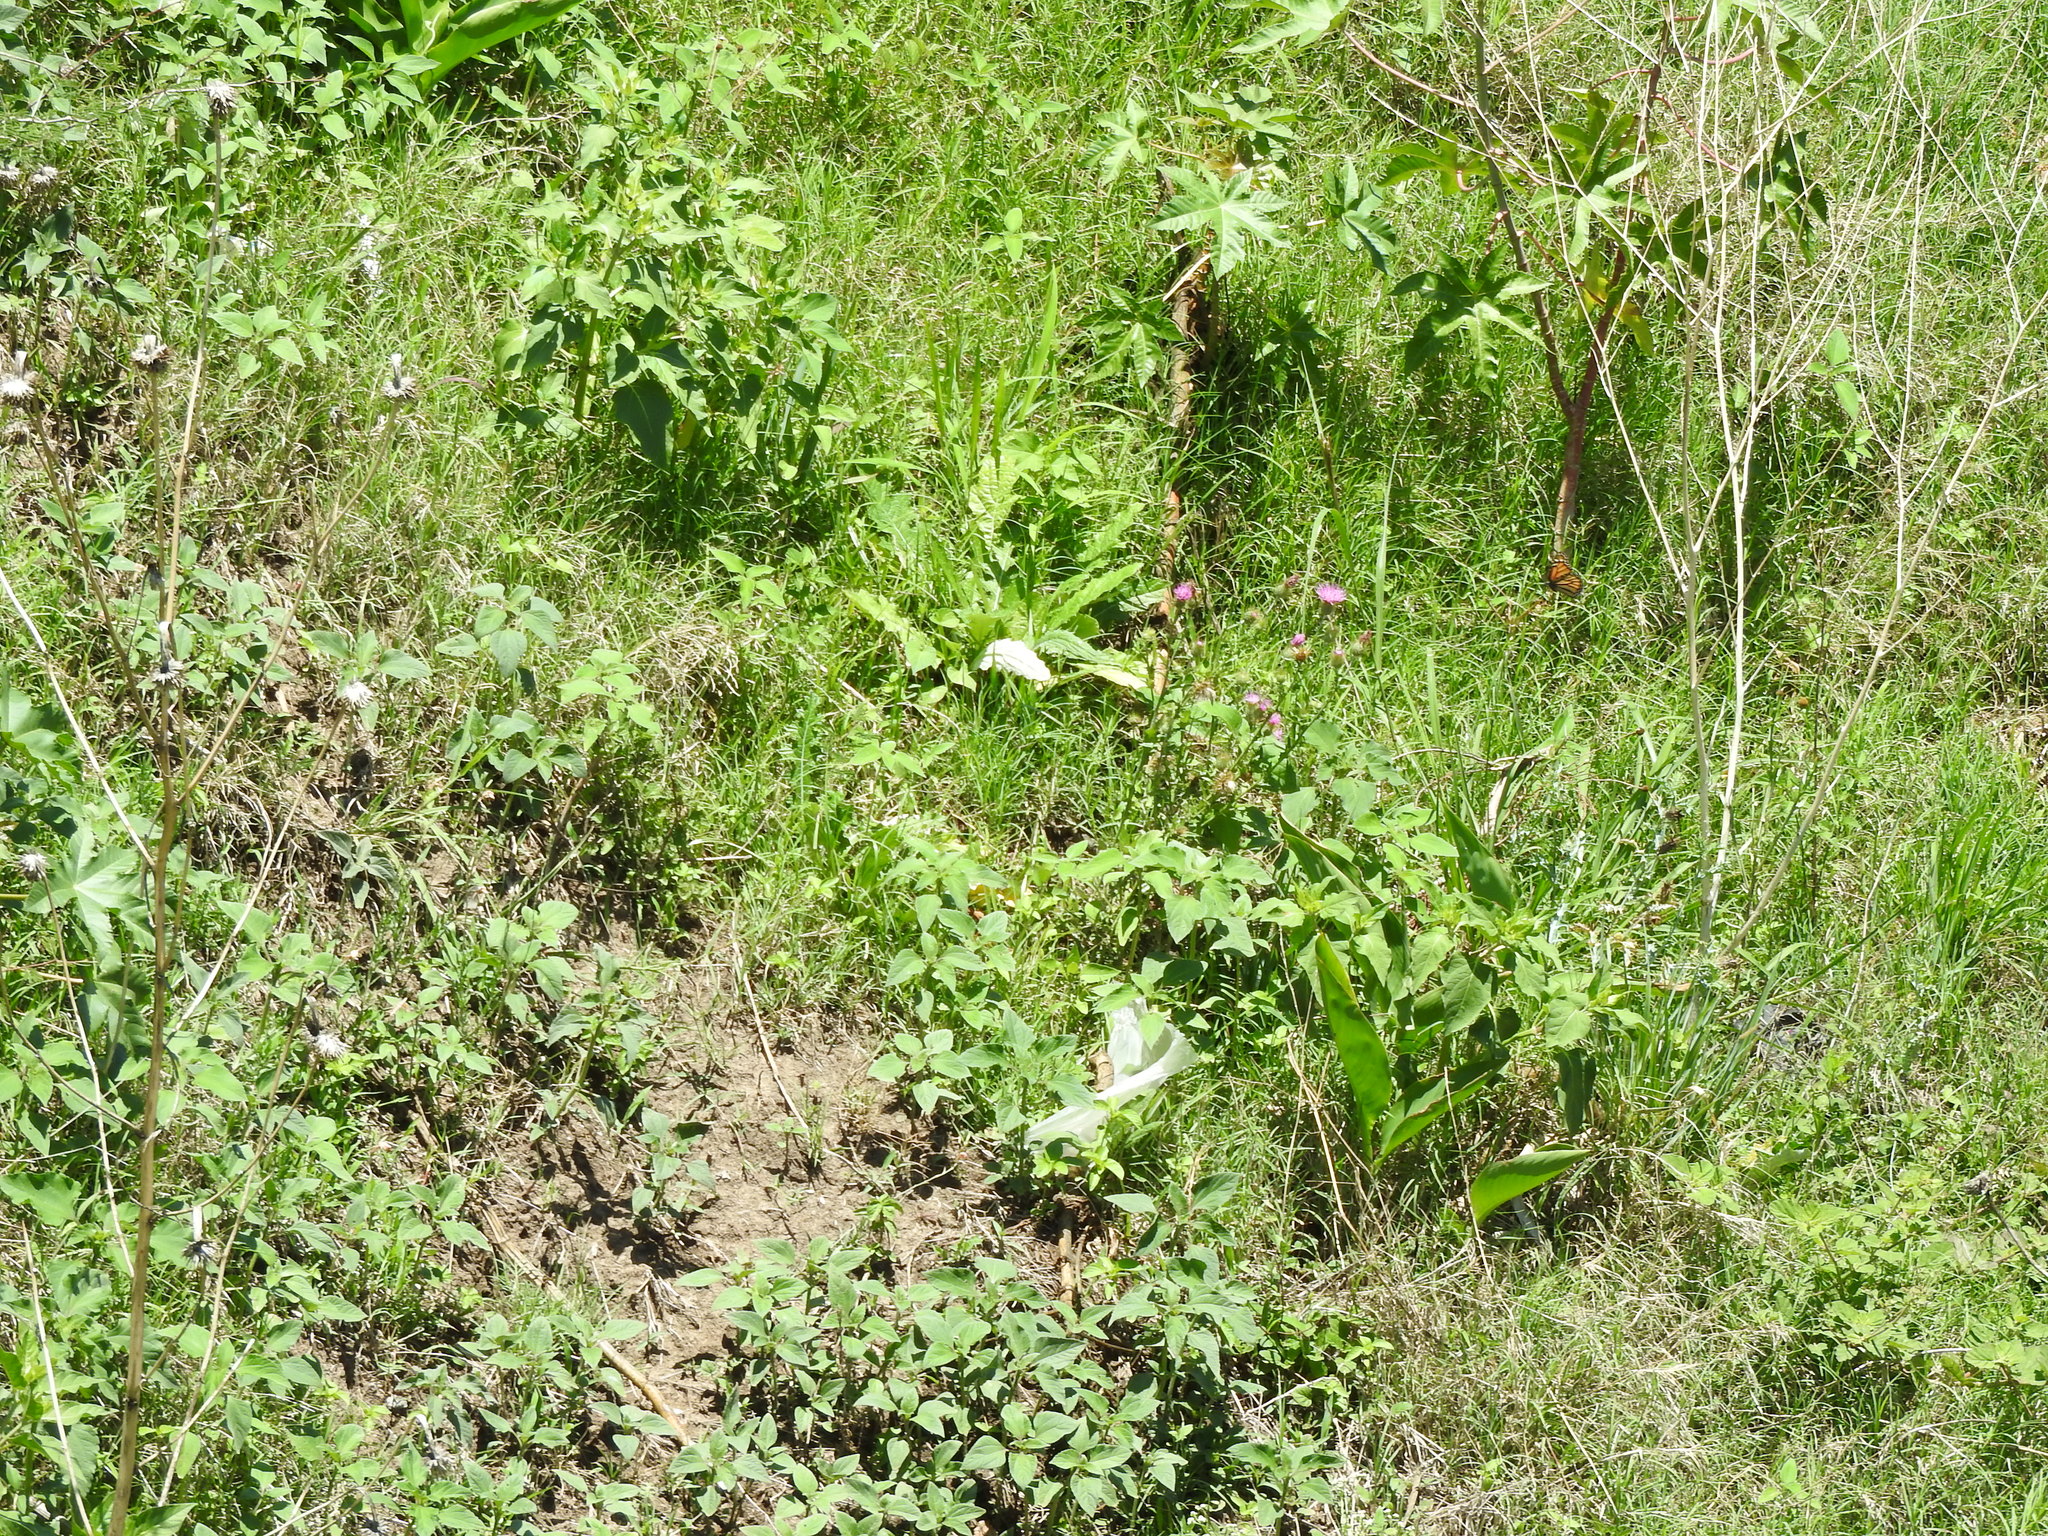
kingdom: Animalia
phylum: Arthropoda
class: Insecta
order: Lepidoptera
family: Nymphalidae
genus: Danaus
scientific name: Danaus plexippus
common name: Monarch
